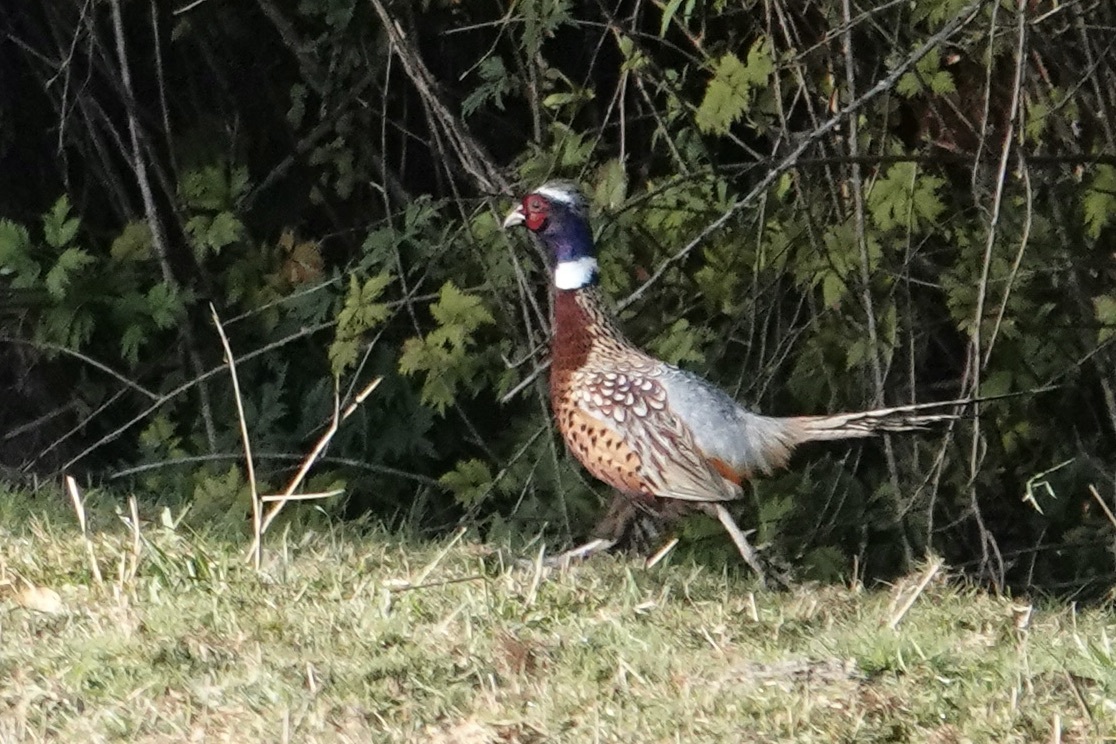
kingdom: Animalia
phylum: Chordata
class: Aves
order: Galliformes
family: Phasianidae
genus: Phasianus
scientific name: Phasianus colchicus
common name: Common pheasant
